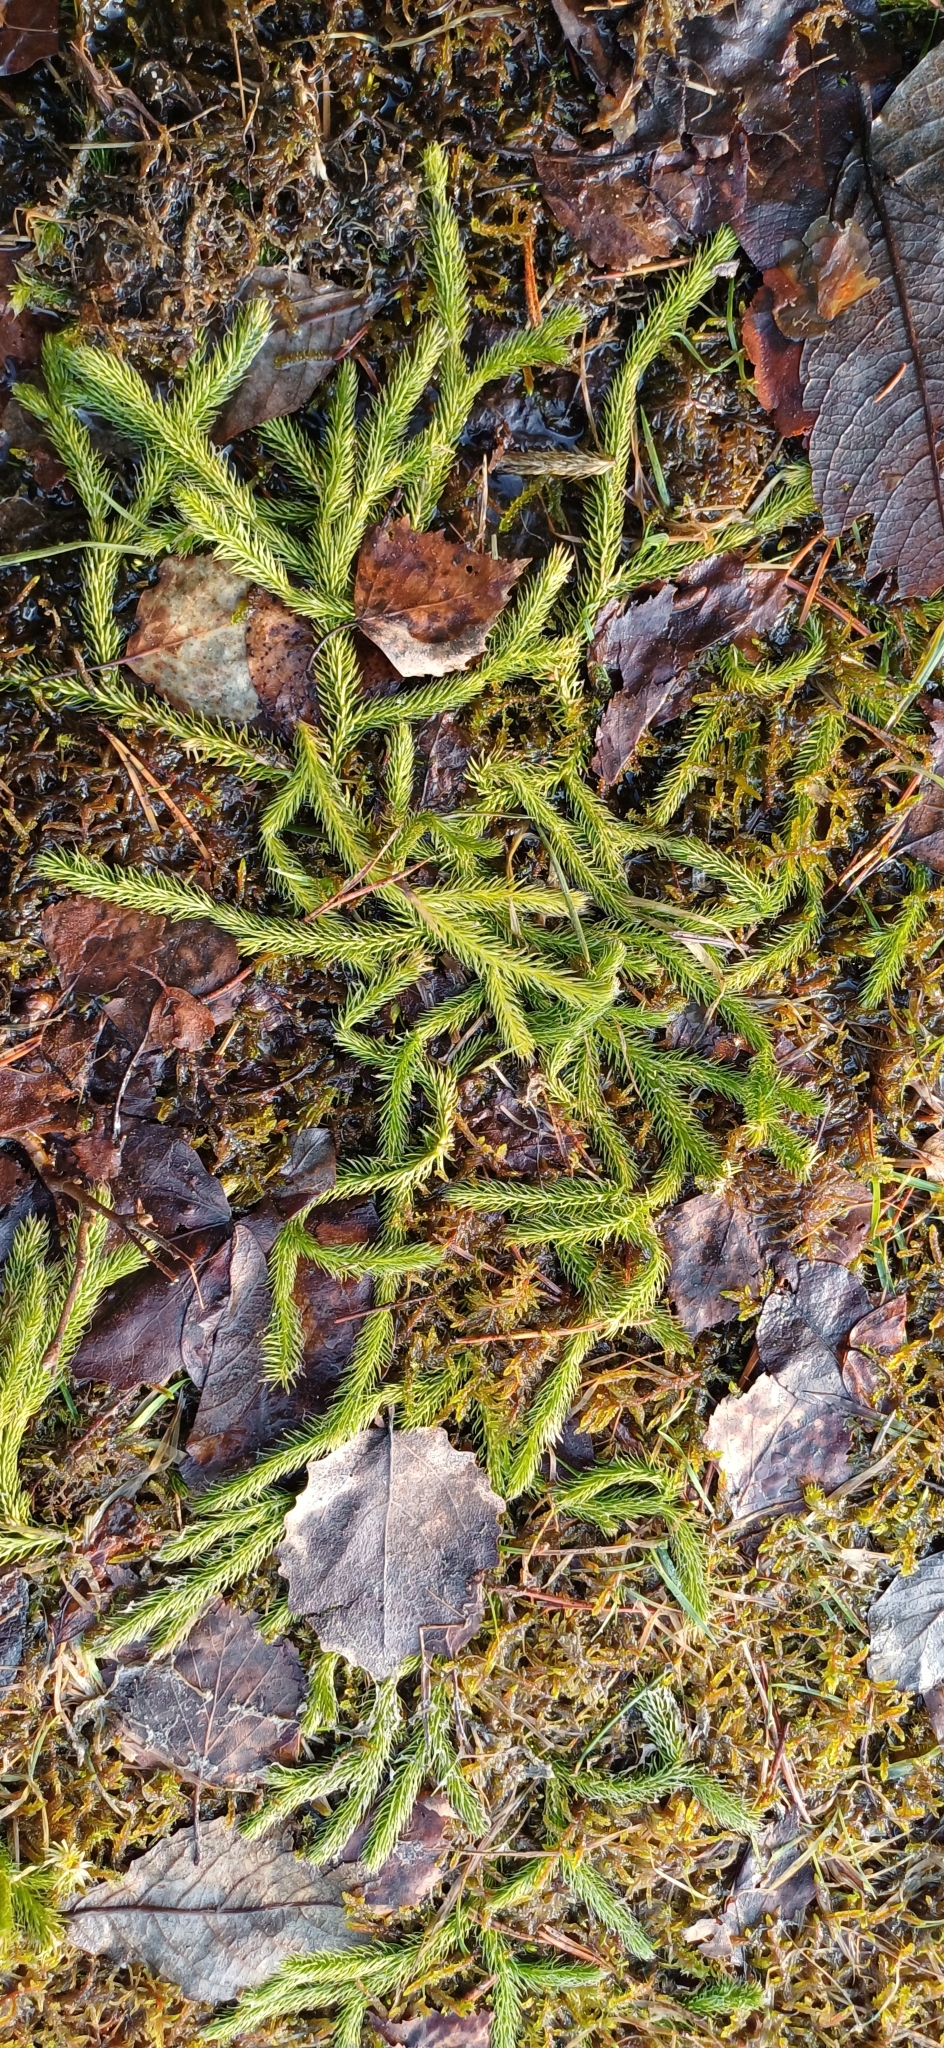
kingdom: Plantae
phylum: Tracheophyta
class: Lycopodiopsida
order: Lycopodiales
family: Lycopodiaceae
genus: Lycopodium
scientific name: Lycopodium clavatum
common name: Stag's-horn clubmoss
